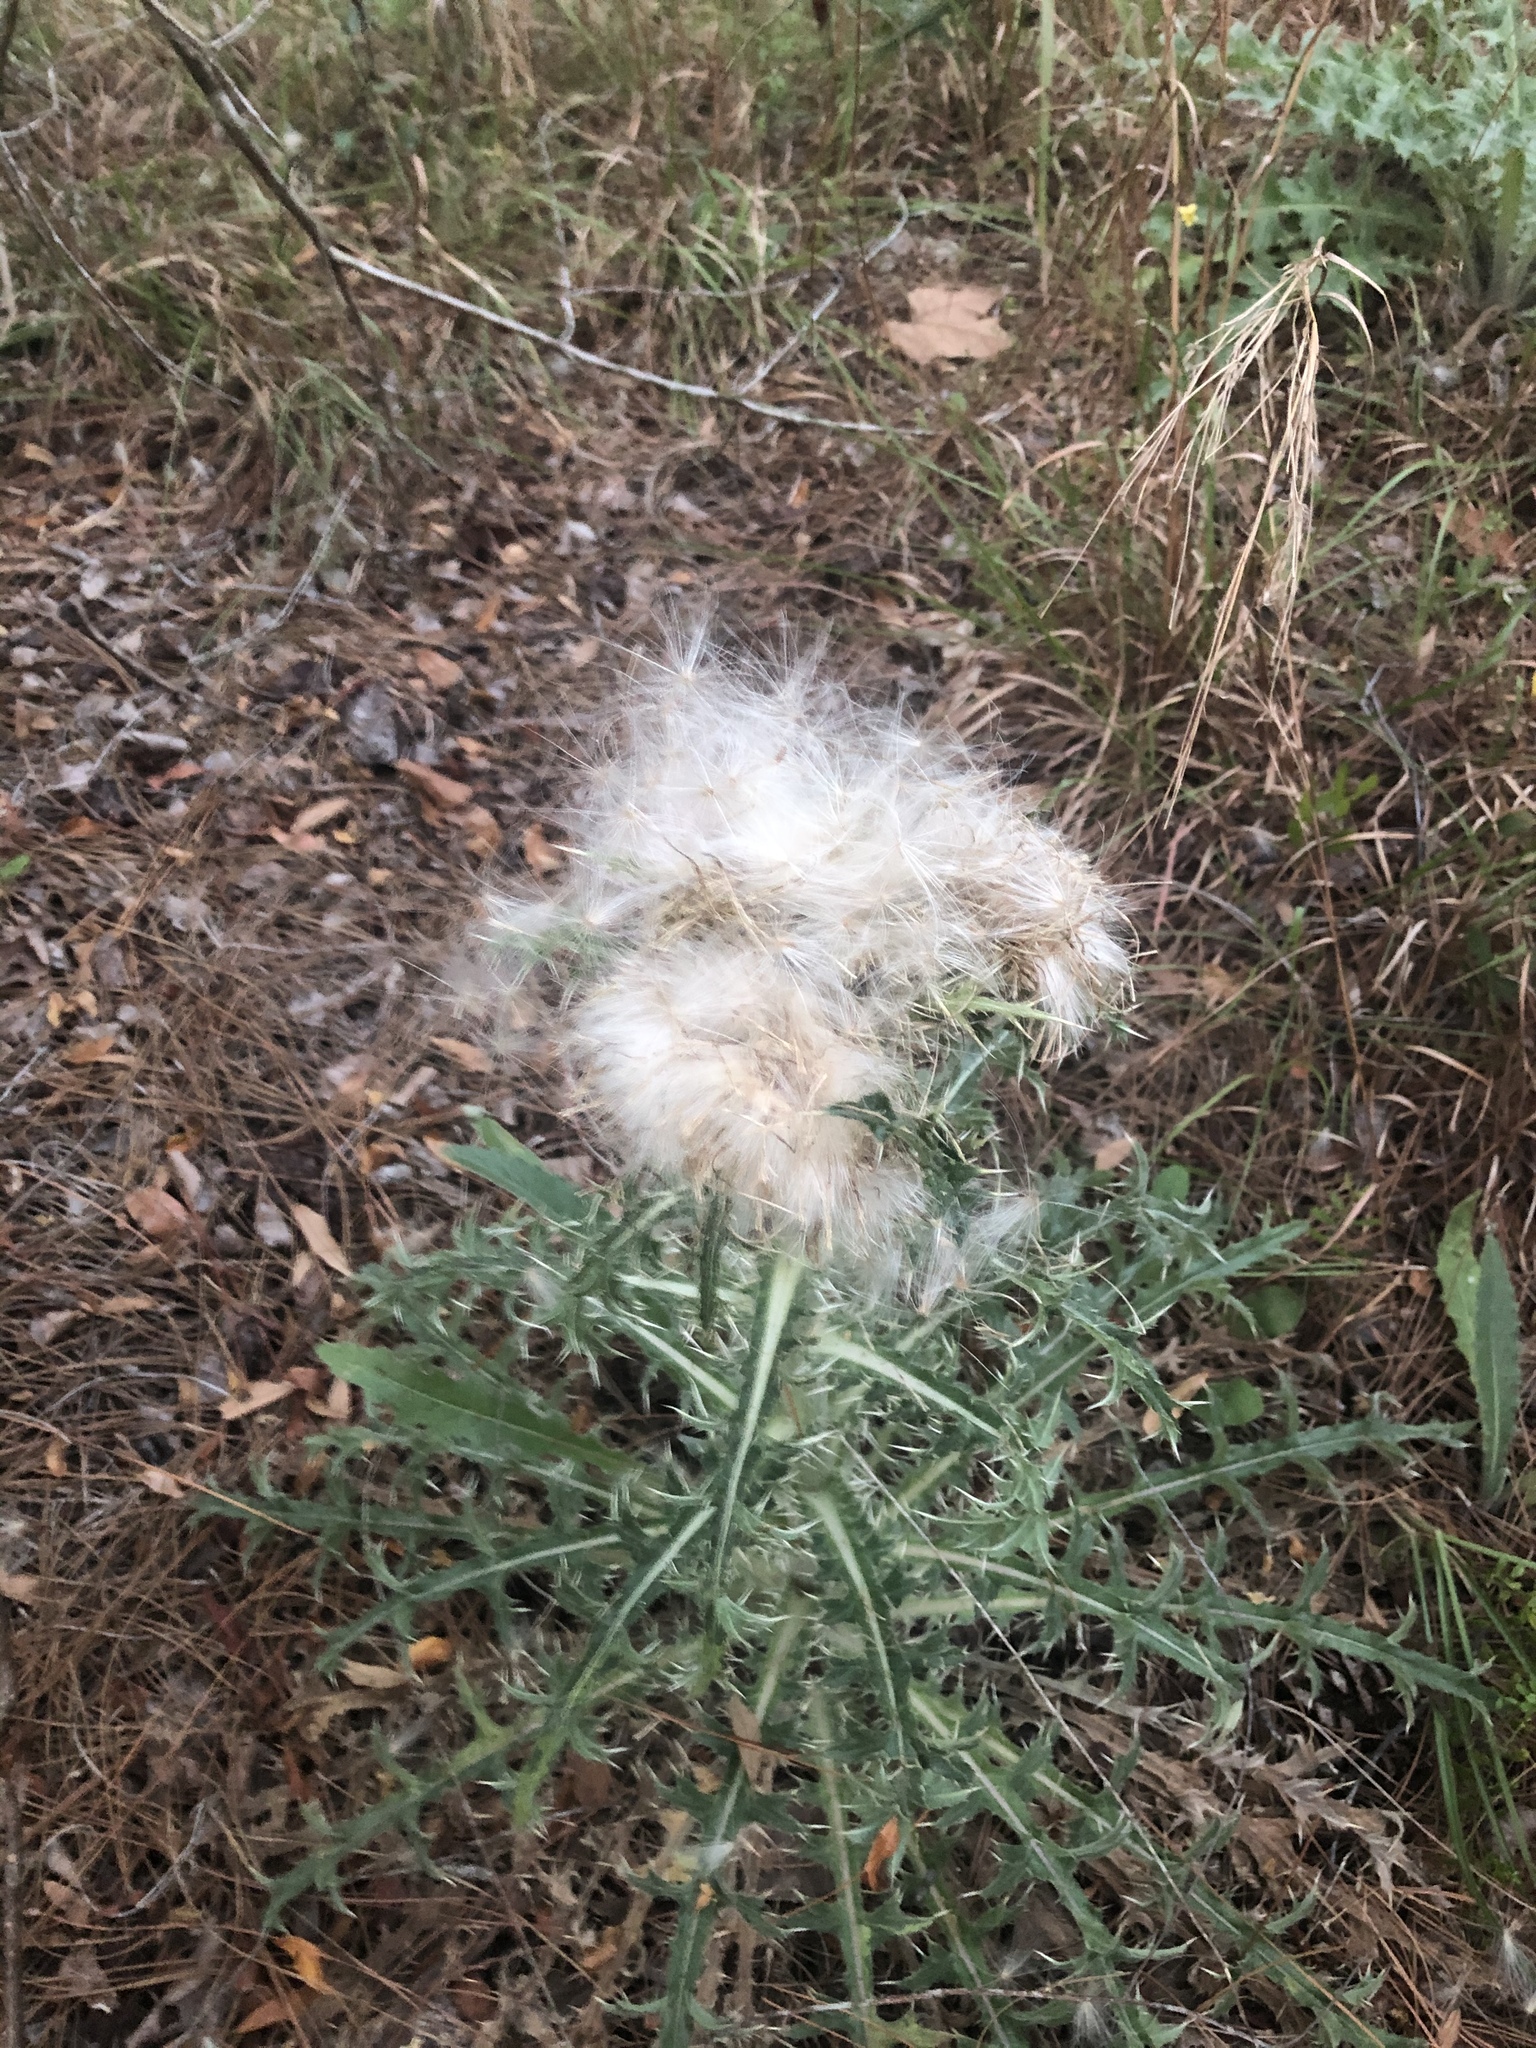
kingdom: Plantae
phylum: Tracheophyta
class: Magnoliopsida
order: Asterales
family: Asteraceae
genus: Cirsium
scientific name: Cirsium horridulum
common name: Bristly thistle
